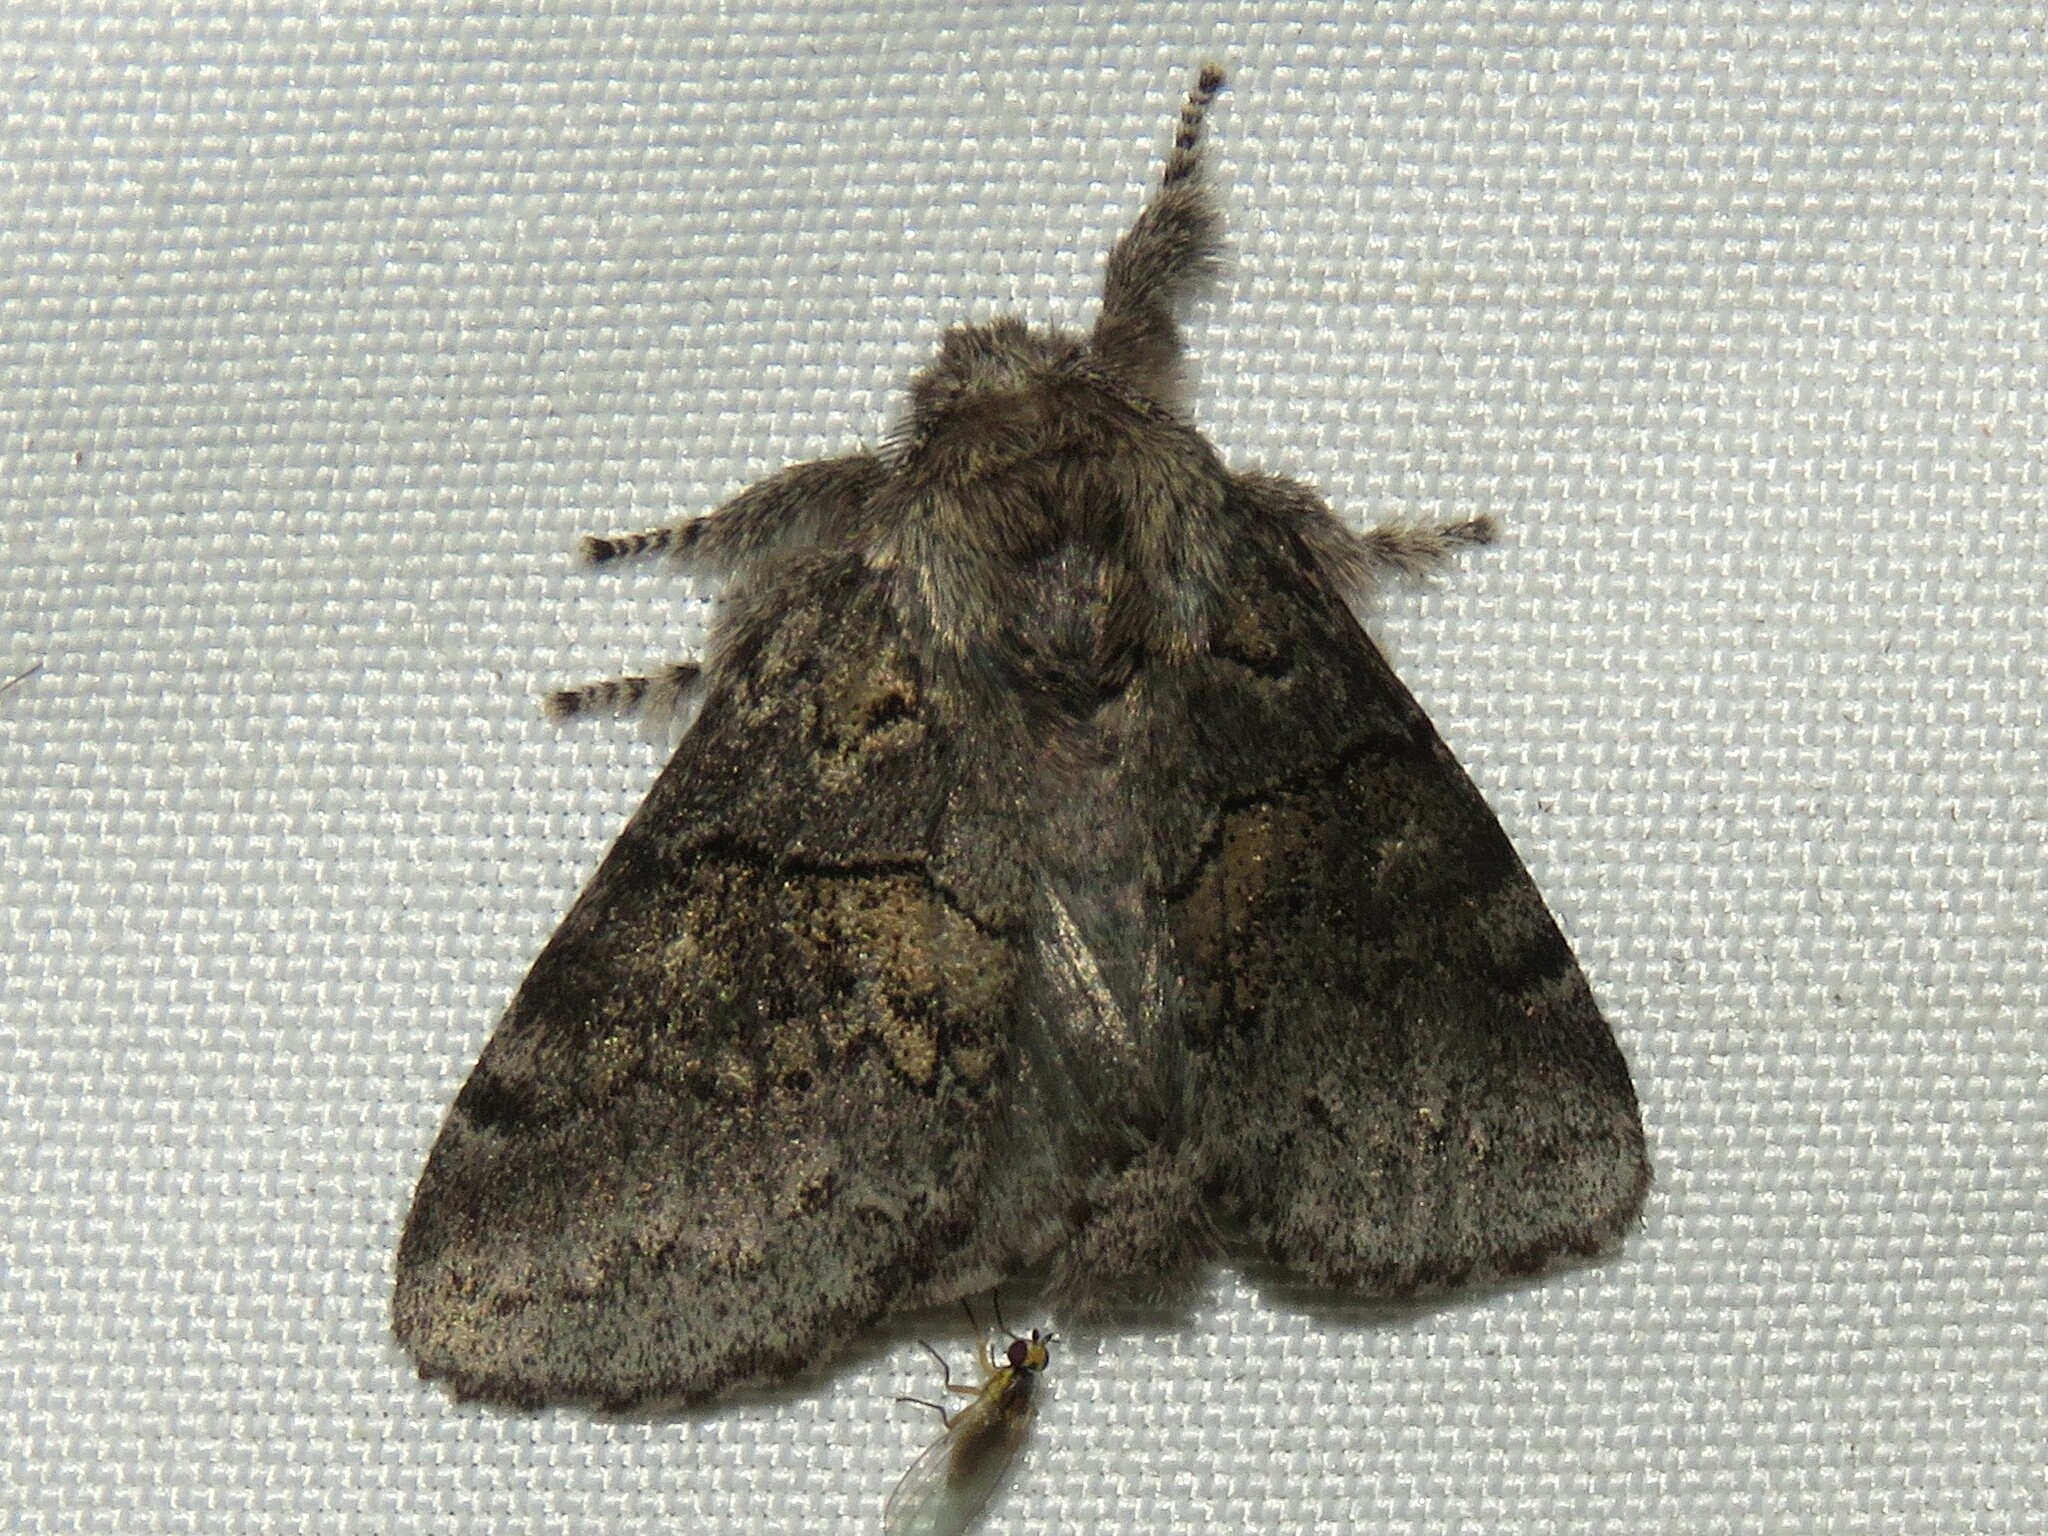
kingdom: Animalia
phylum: Arthropoda
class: Insecta
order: Lepidoptera
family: Notodontidae
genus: Gluphisia
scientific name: Gluphisia septentrionis
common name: Common gluphisia
